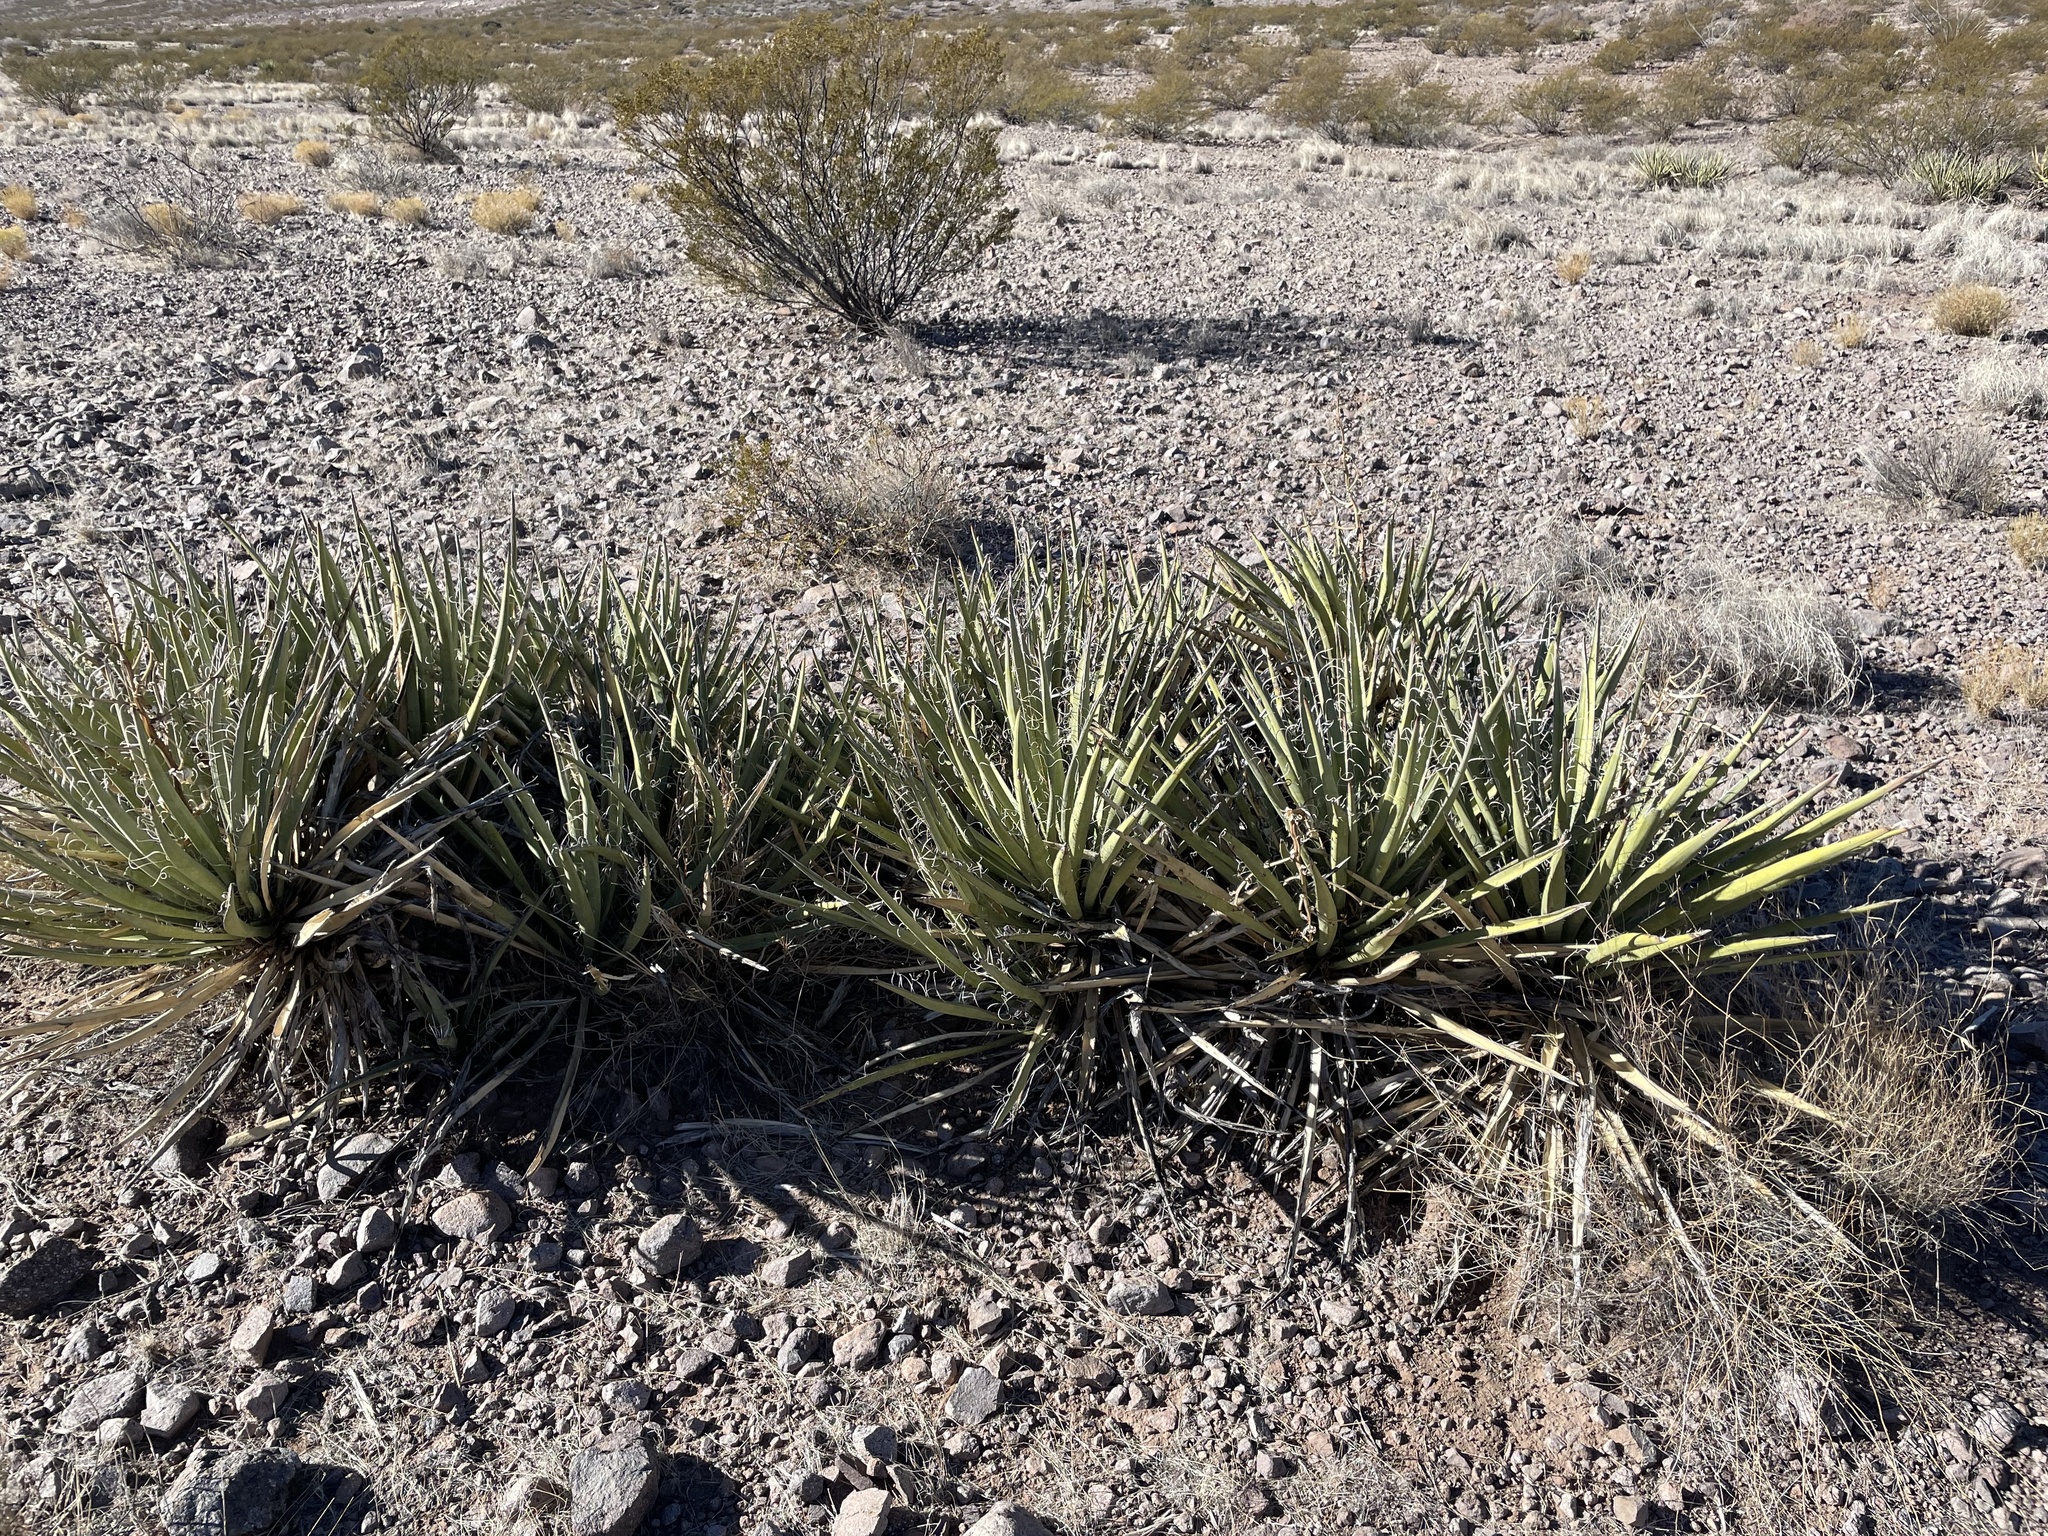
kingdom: Plantae
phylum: Tracheophyta
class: Liliopsida
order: Asparagales
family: Asparagaceae
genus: Yucca
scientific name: Yucca baccata
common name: Banana yucca
